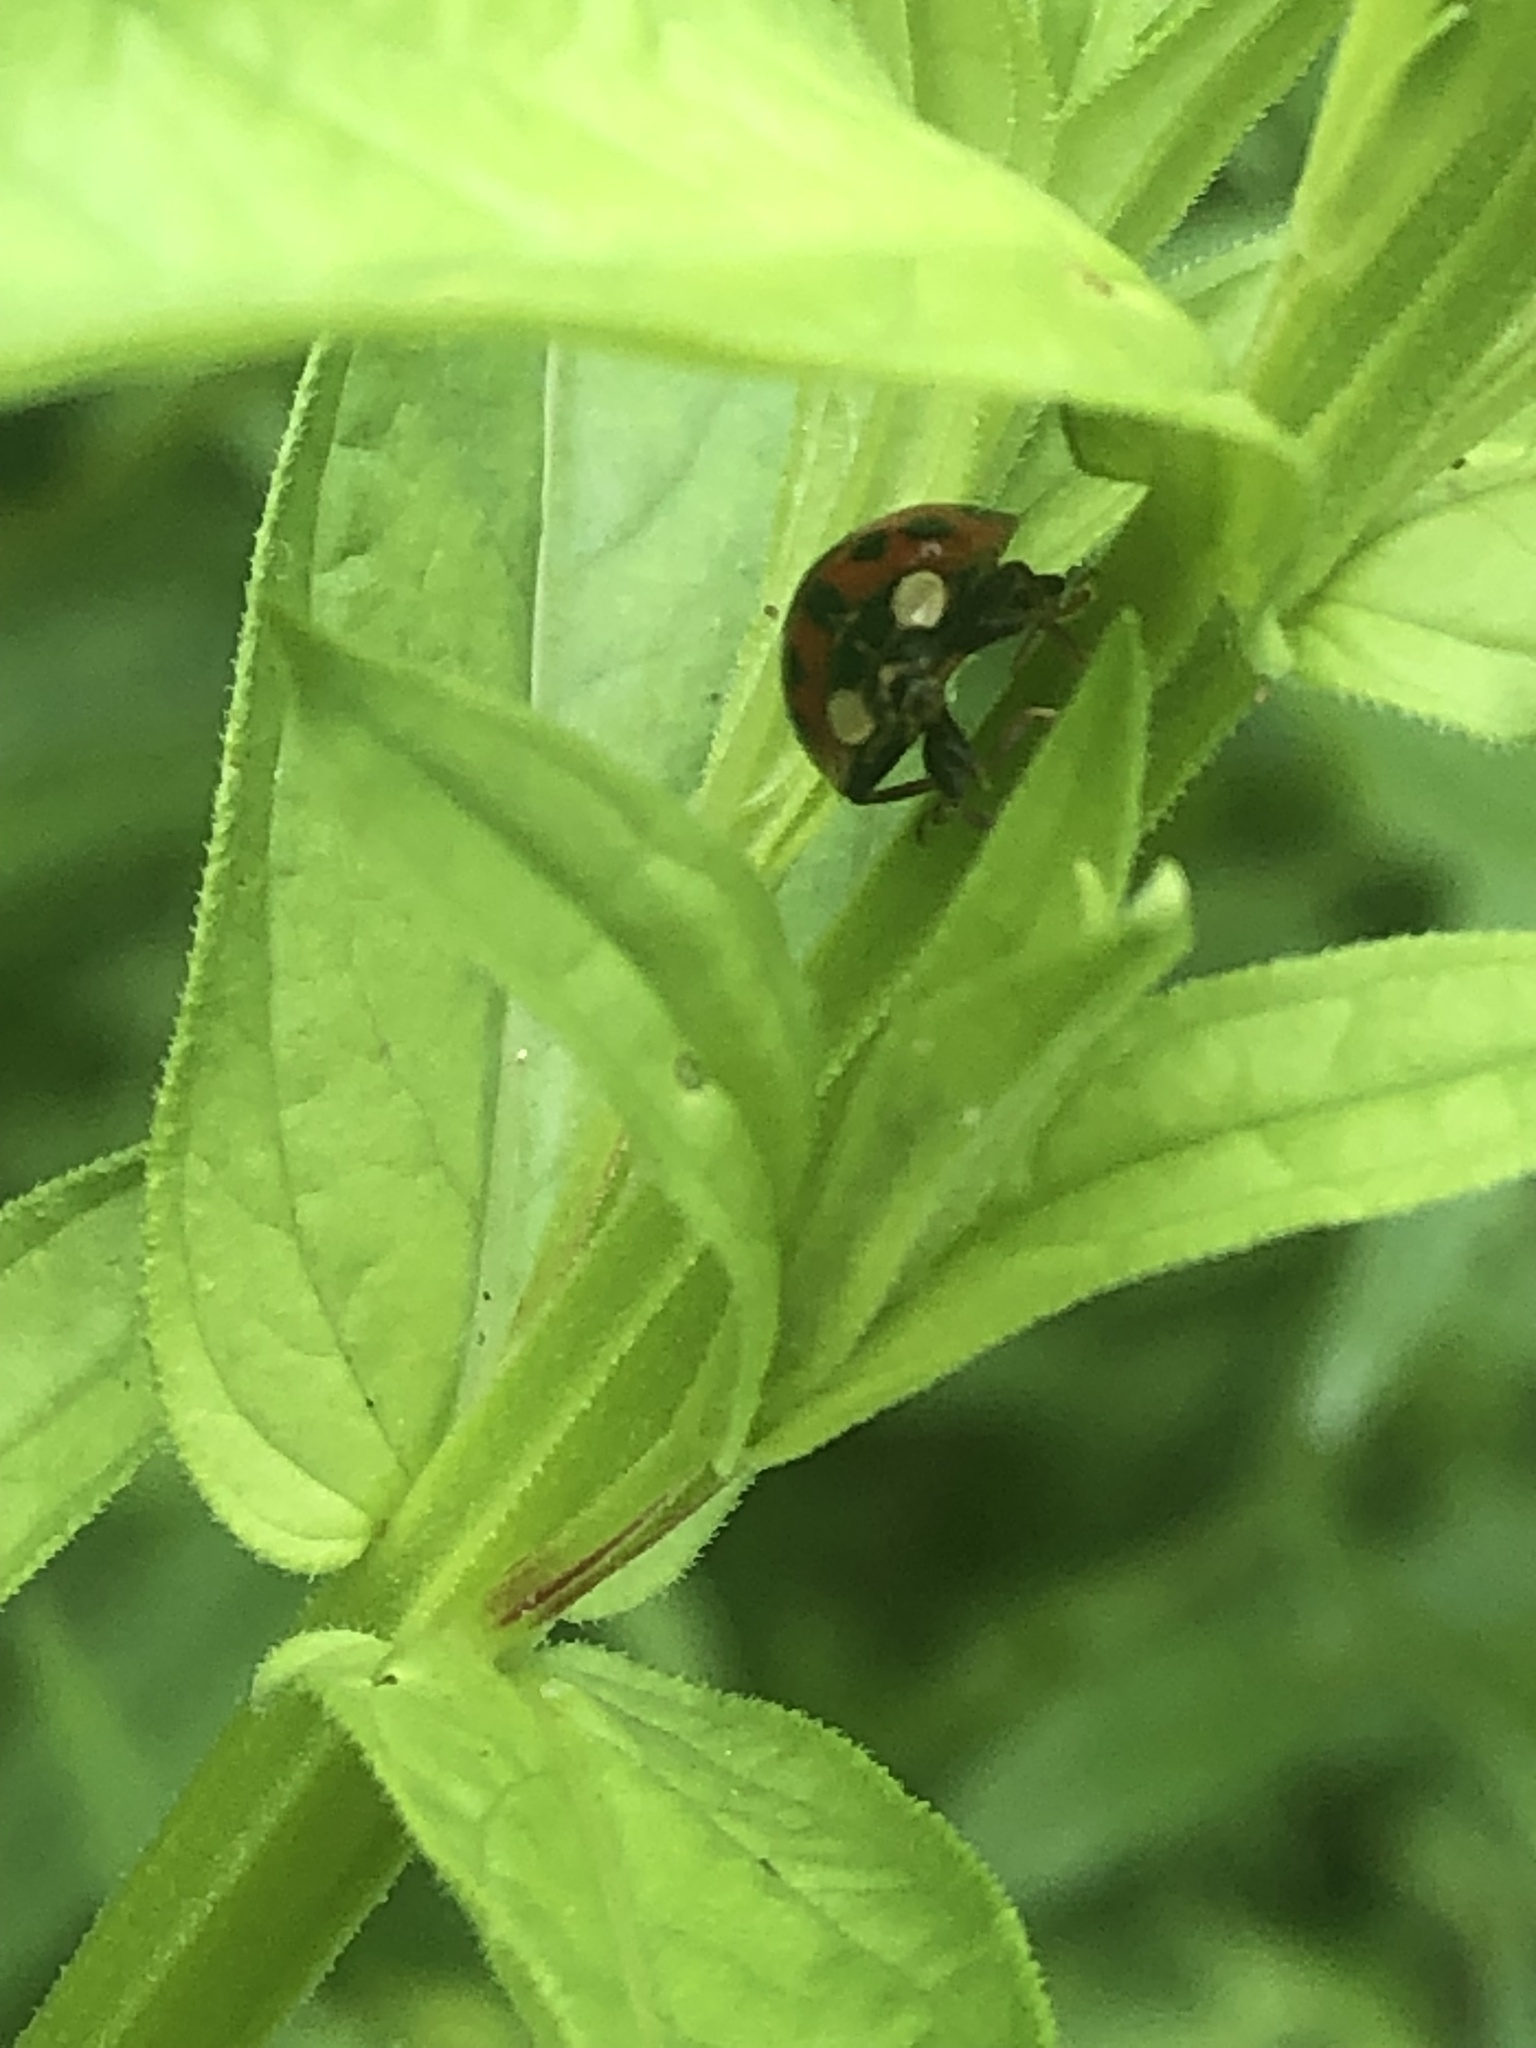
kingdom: Animalia
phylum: Arthropoda
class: Insecta
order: Coleoptera
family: Coccinellidae
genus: Harmonia
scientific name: Harmonia axyridis
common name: Harlequin ladybird
